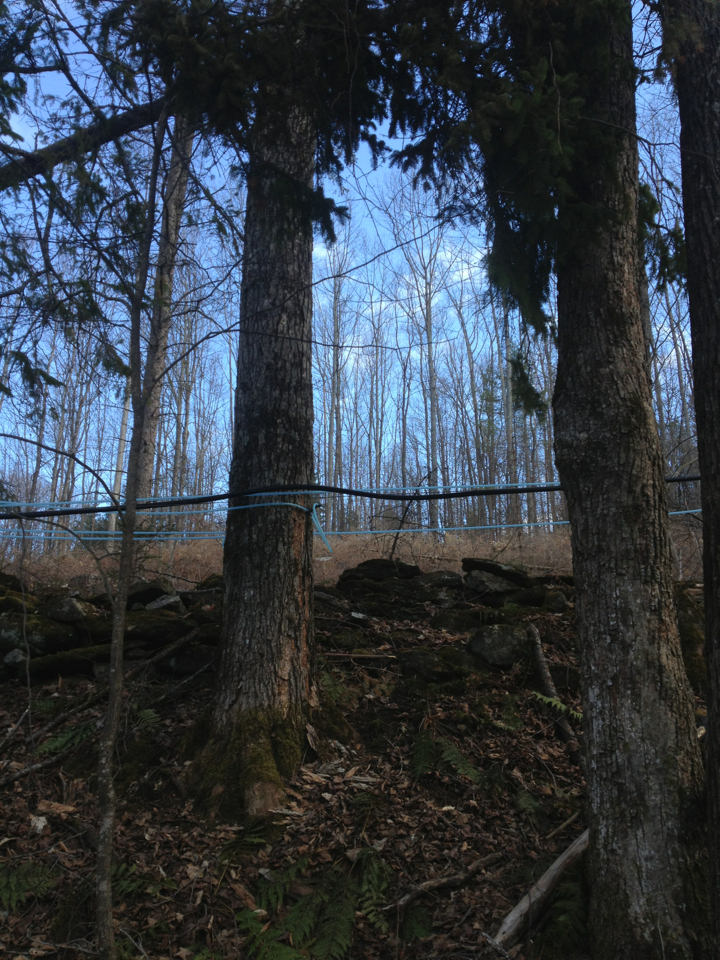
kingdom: Plantae
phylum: Tracheophyta
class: Magnoliopsida
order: Sapindales
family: Sapindaceae
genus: Acer
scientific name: Acer saccharum
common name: Sugar maple
